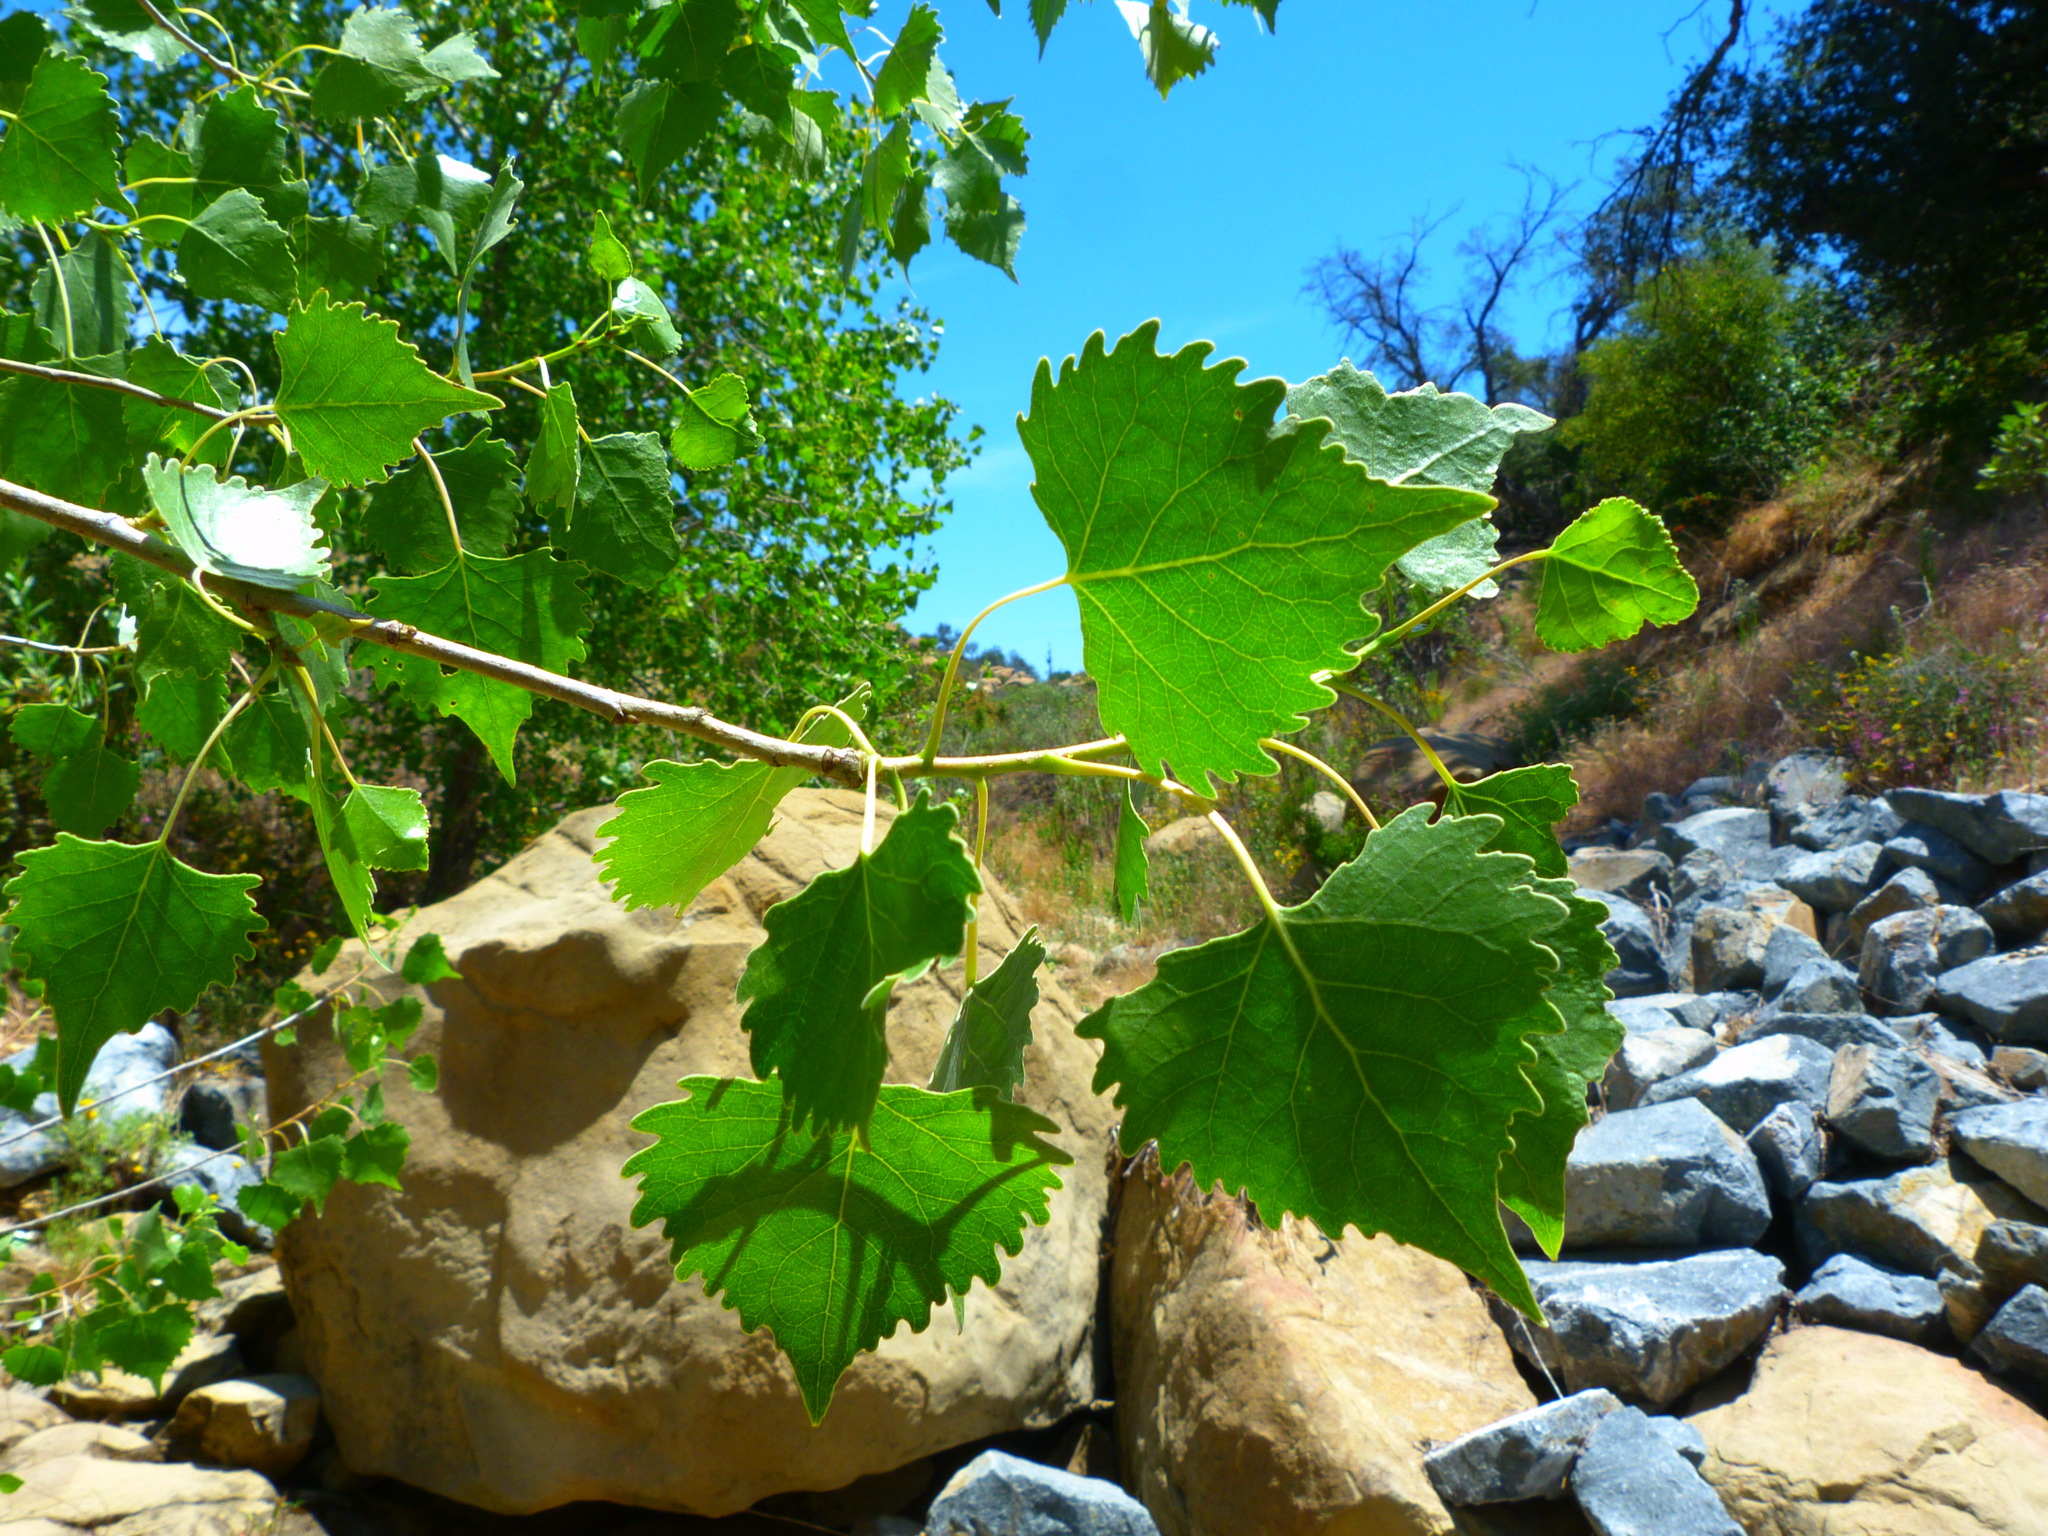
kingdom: Plantae
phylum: Tracheophyta
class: Magnoliopsida
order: Malpighiales
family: Salicaceae
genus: Populus
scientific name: Populus fremontii
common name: Fremont's cottonwood
